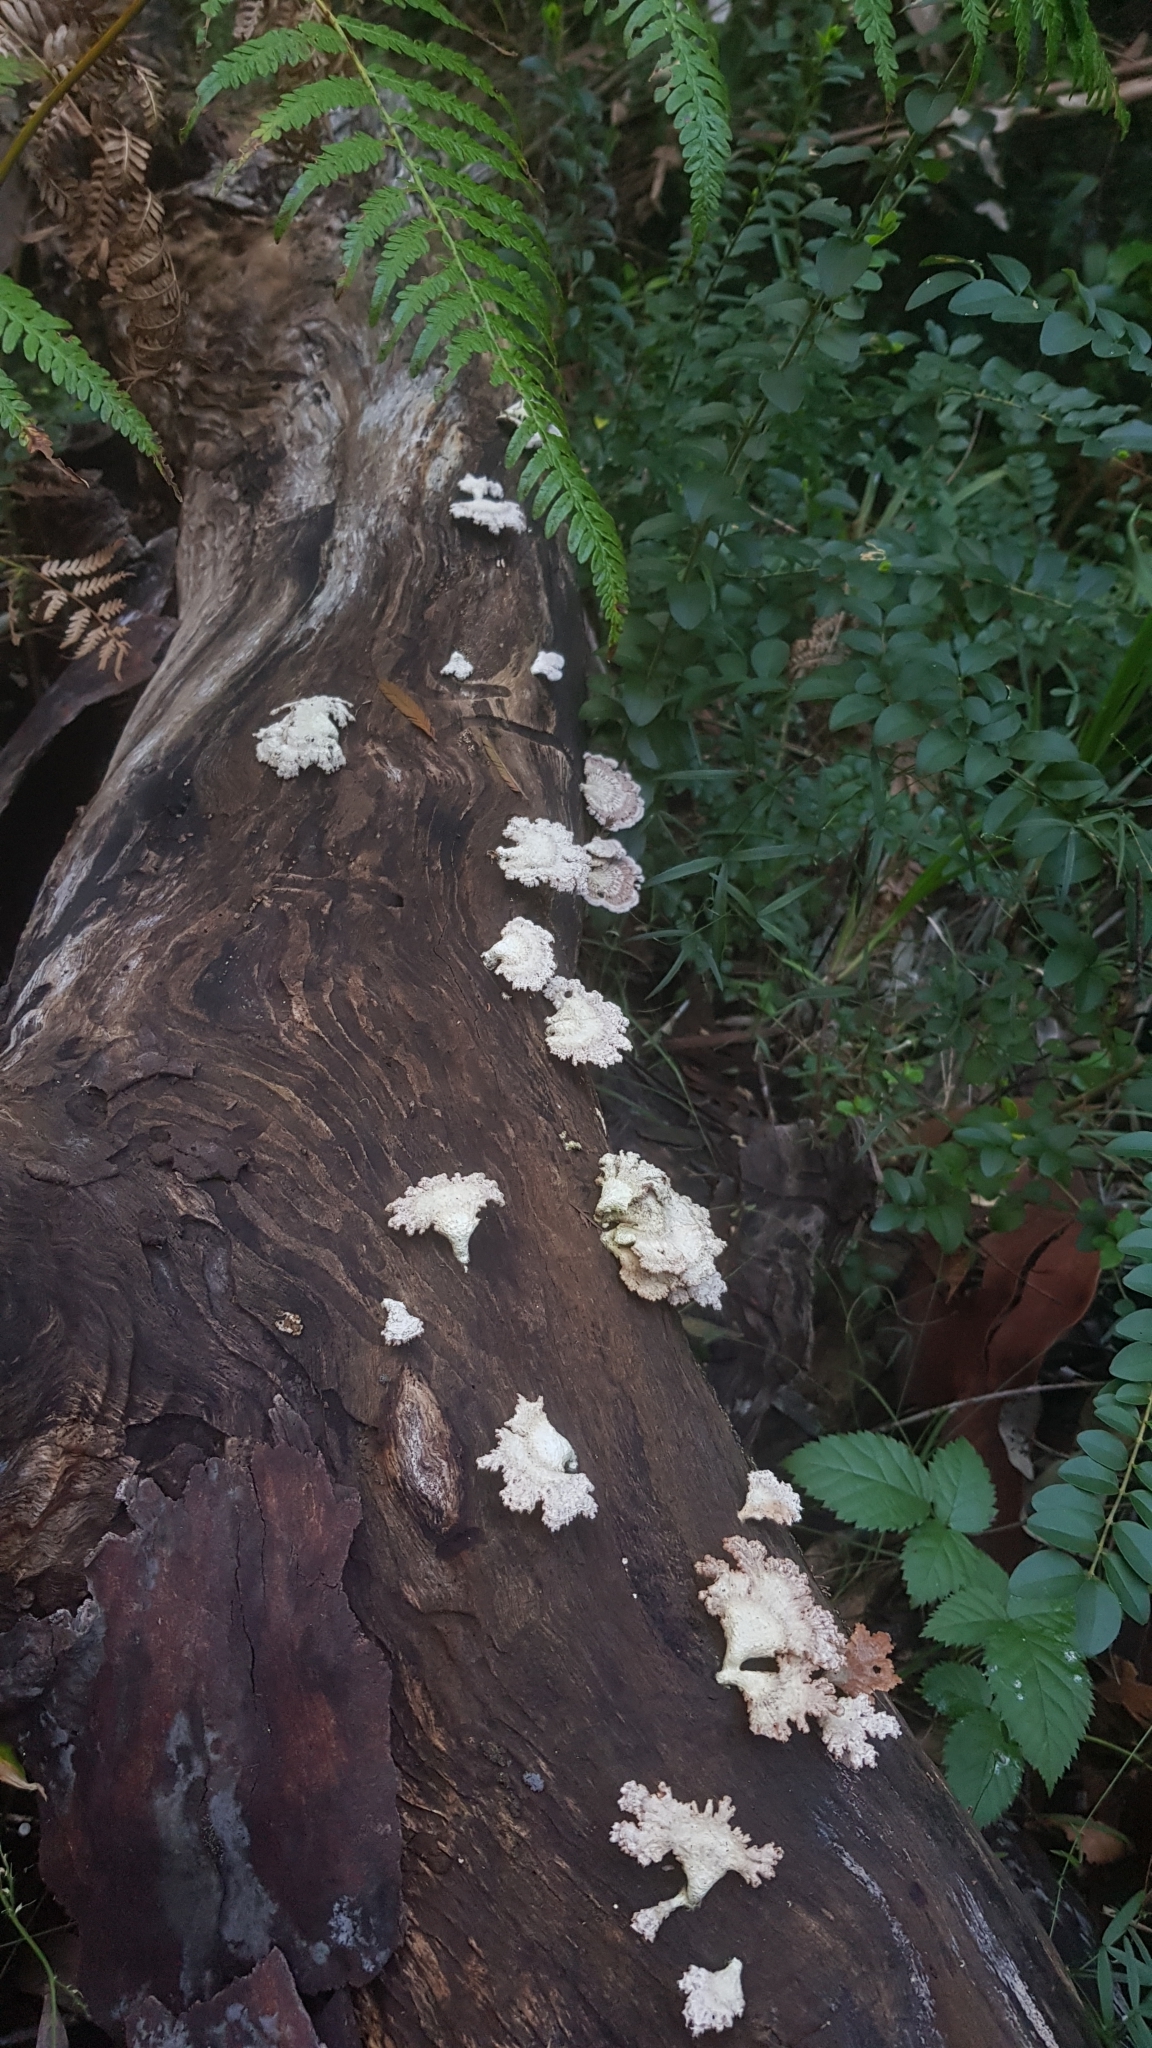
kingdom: Fungi
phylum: Basidiomycota
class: Agaricomycetes
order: Agaricales
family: Schizophyllaceae
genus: Schizophyllum
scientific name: Schizophyllum commune
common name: Common porecrust
